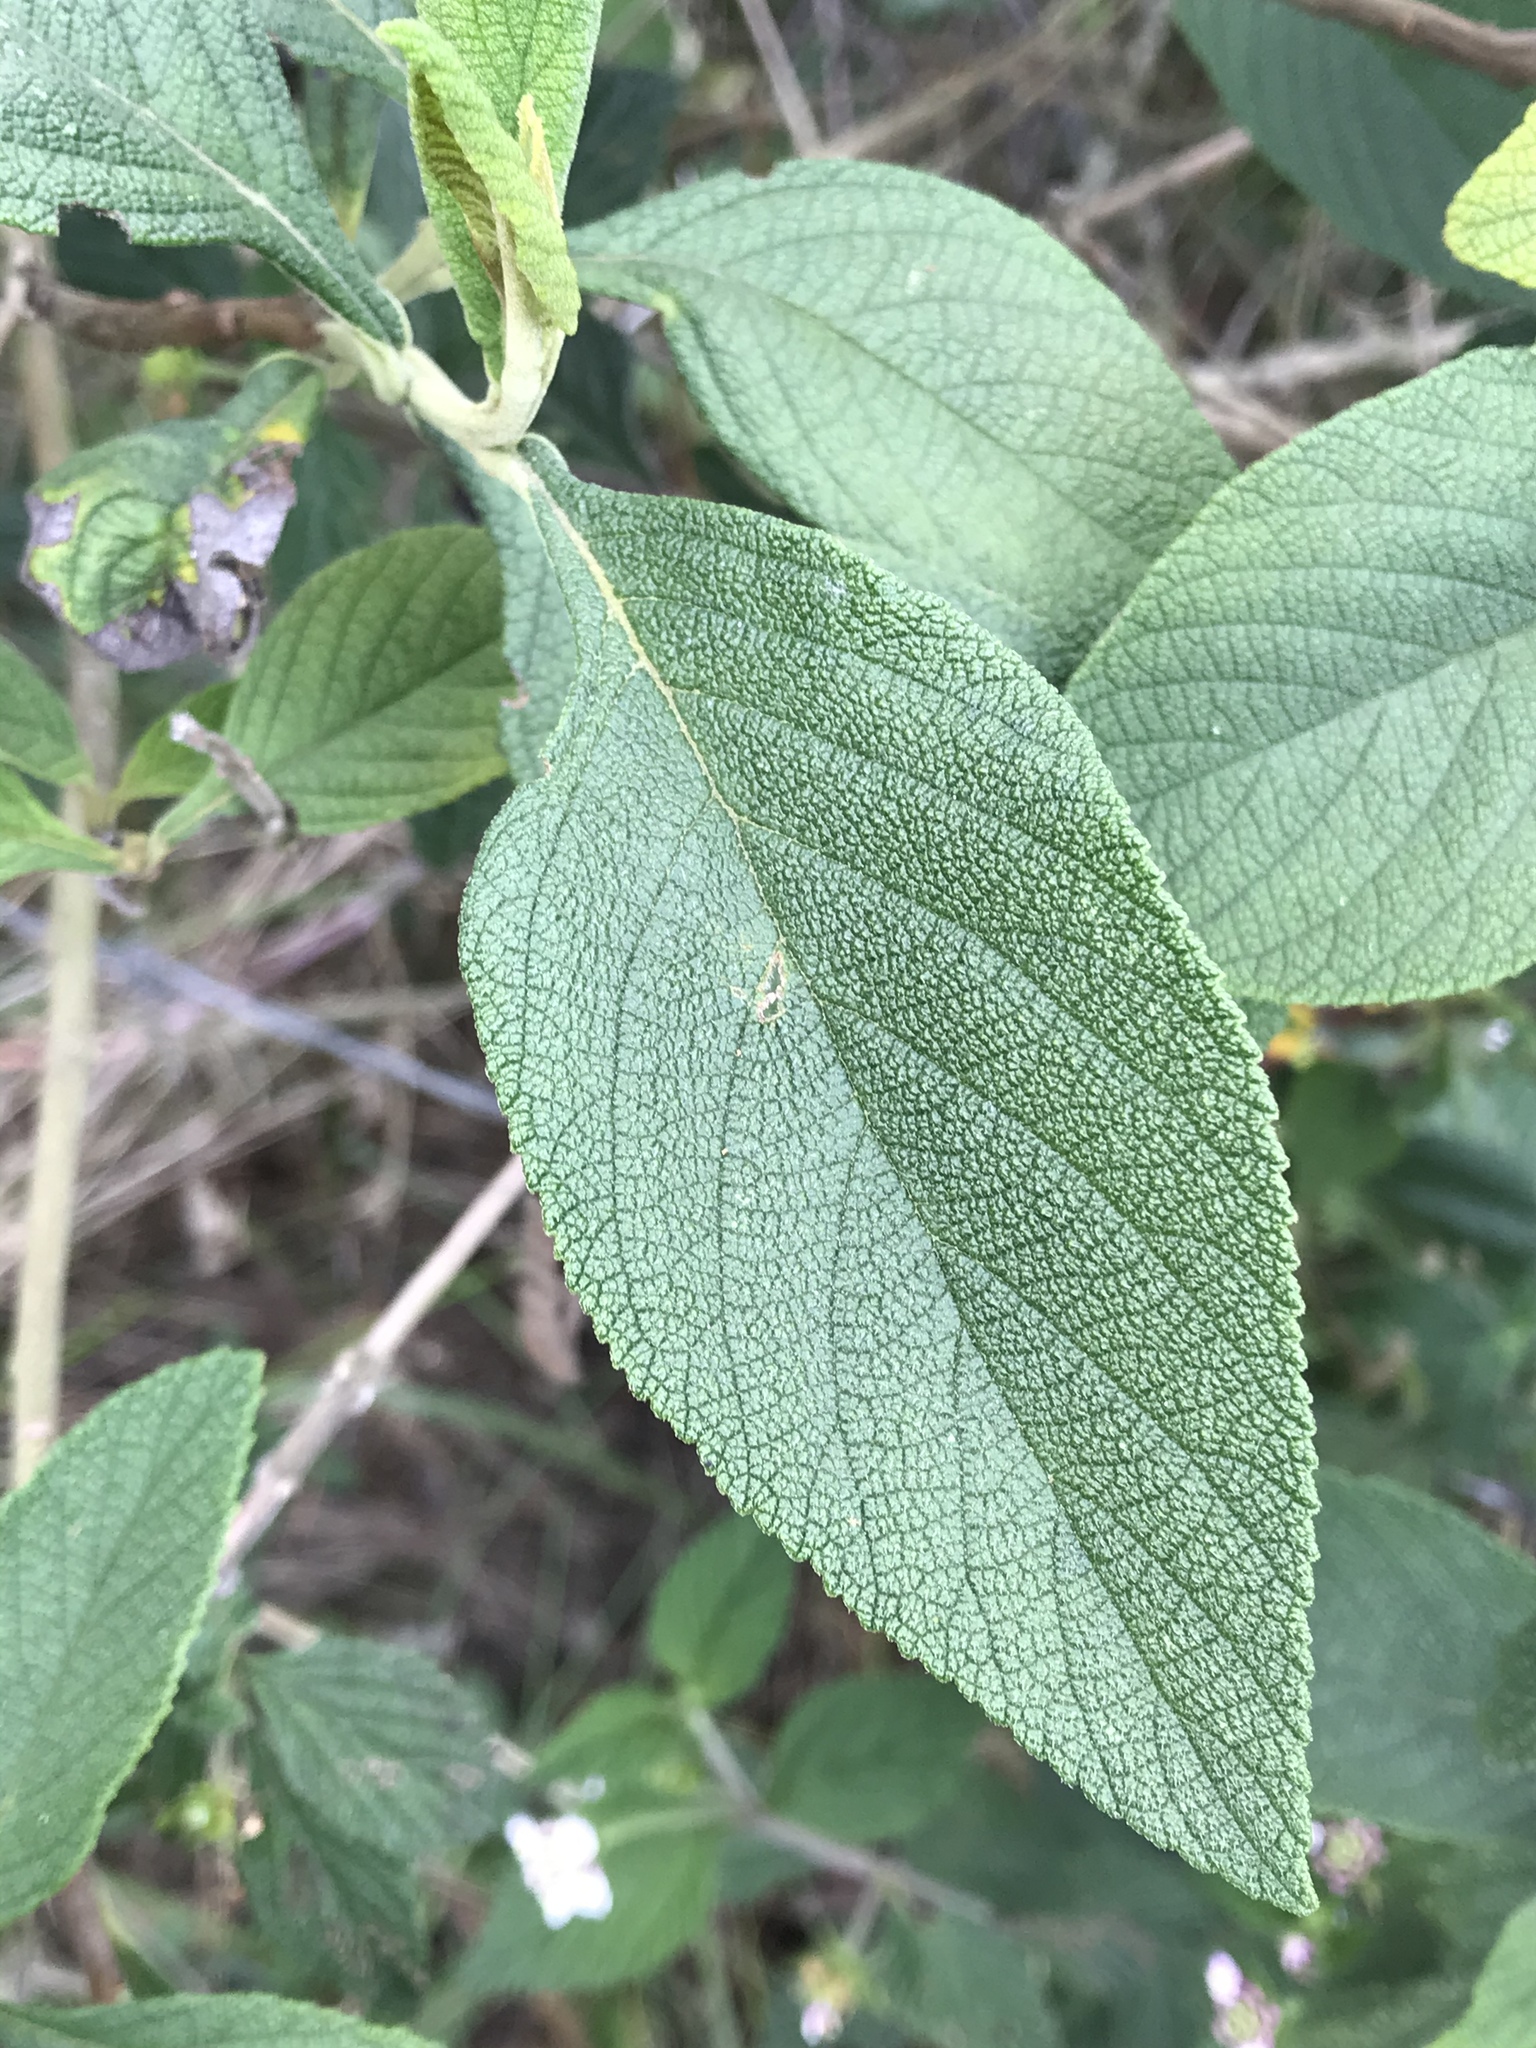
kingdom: Plantae
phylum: Tracheophyta
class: Magnoliopsida
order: Boraginales
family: Cordiaceae
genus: Varronia
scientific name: Varronia cylindrostachya
